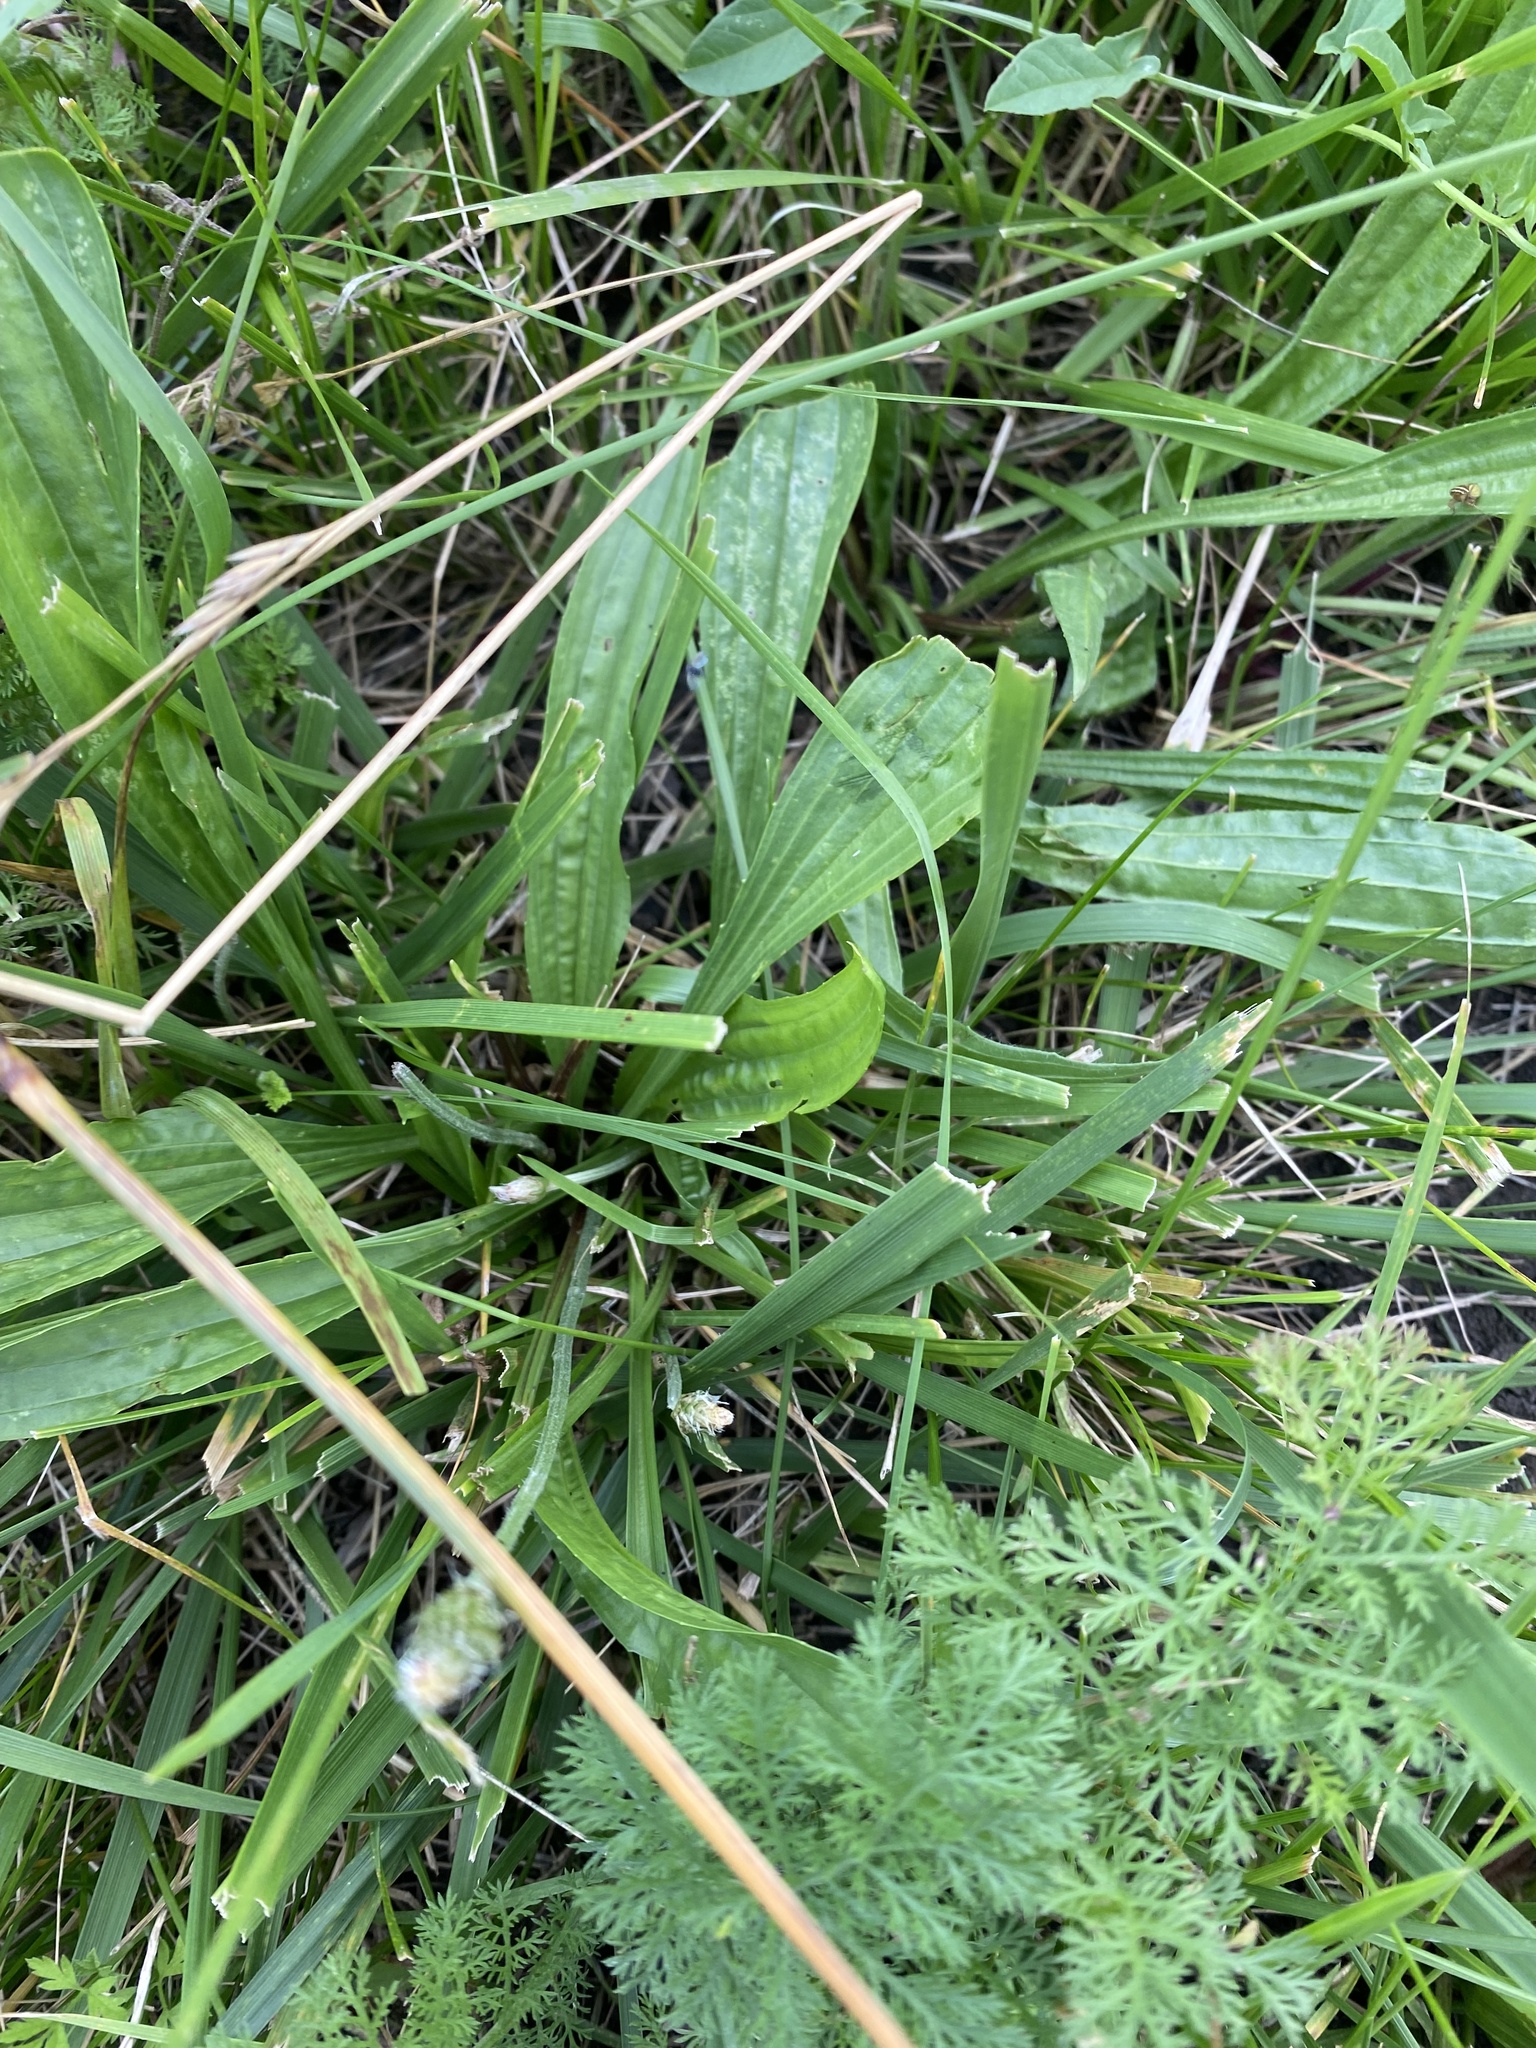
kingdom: Plantae
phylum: Tracheophyta
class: Magnoliopsida
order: Lamiales
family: Plantaginaceae
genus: Plantago
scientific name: Plantago lanceolata
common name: Ribwort plantain
